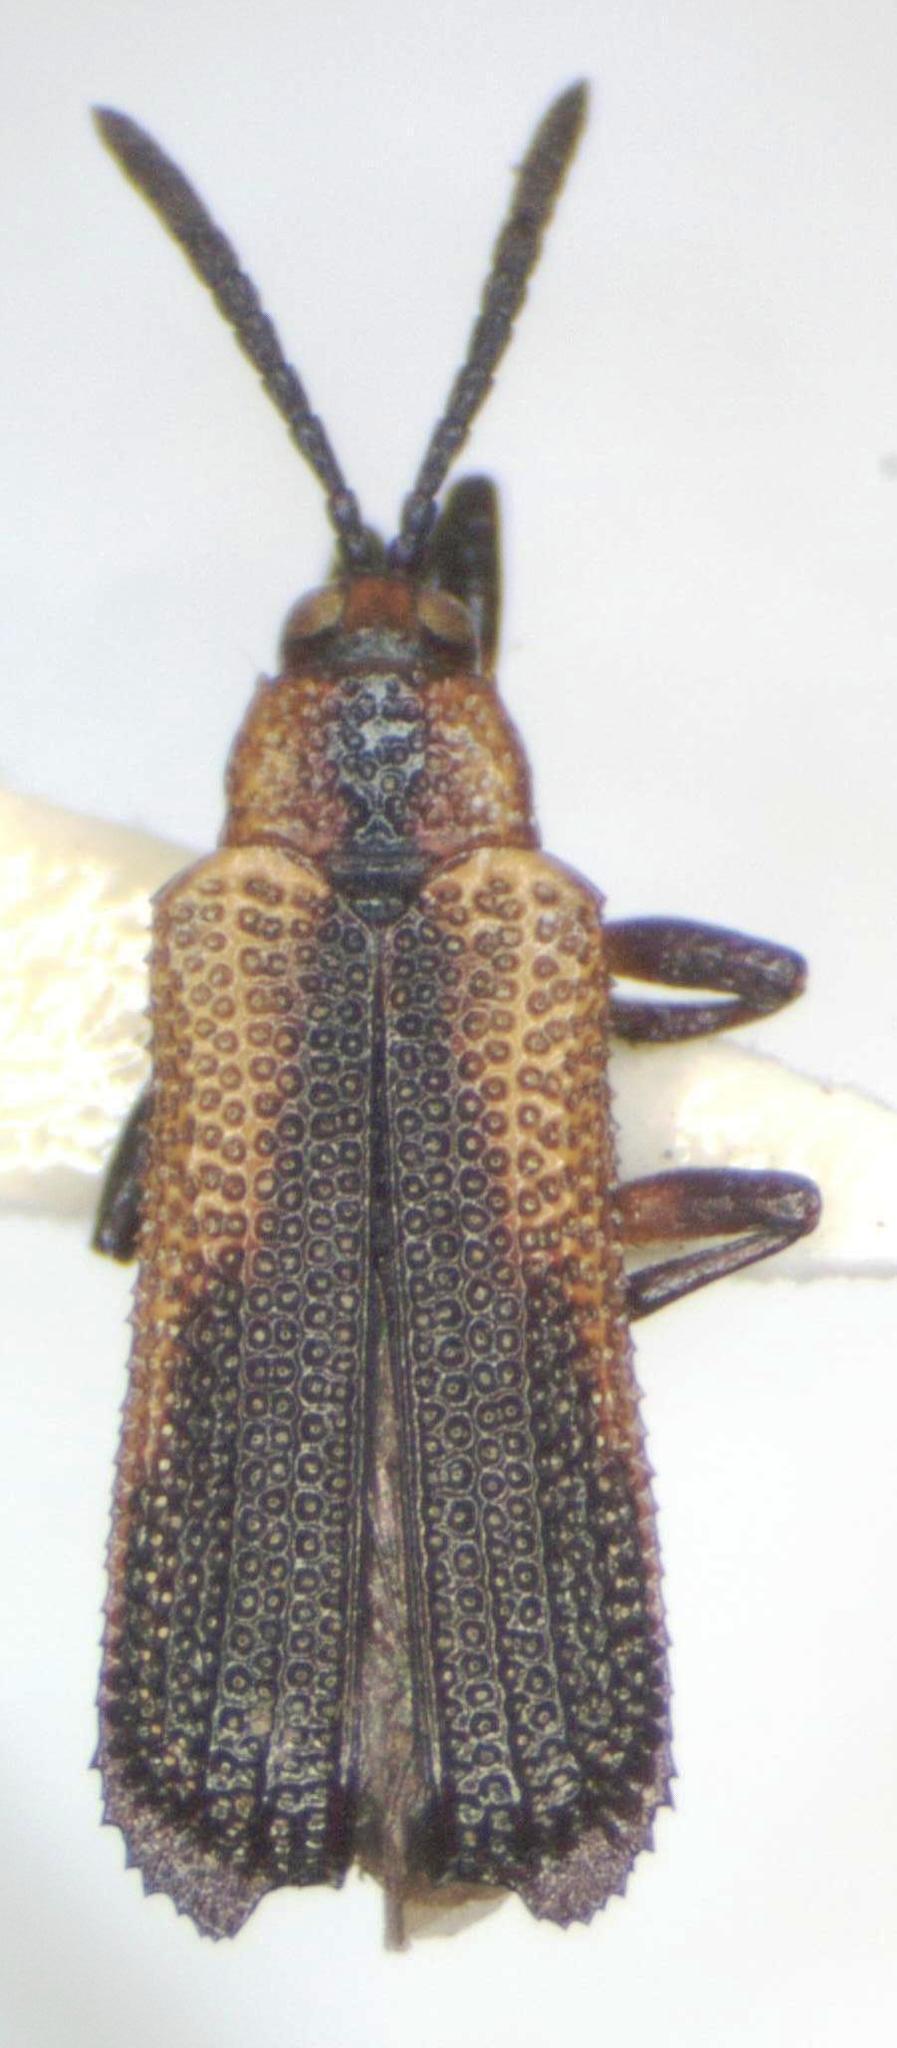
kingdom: Animalia
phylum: Arthropoda
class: Insecta
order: Coleoptera
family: Chrysomelidae
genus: Uroplata
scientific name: Uroplata sculptilis
